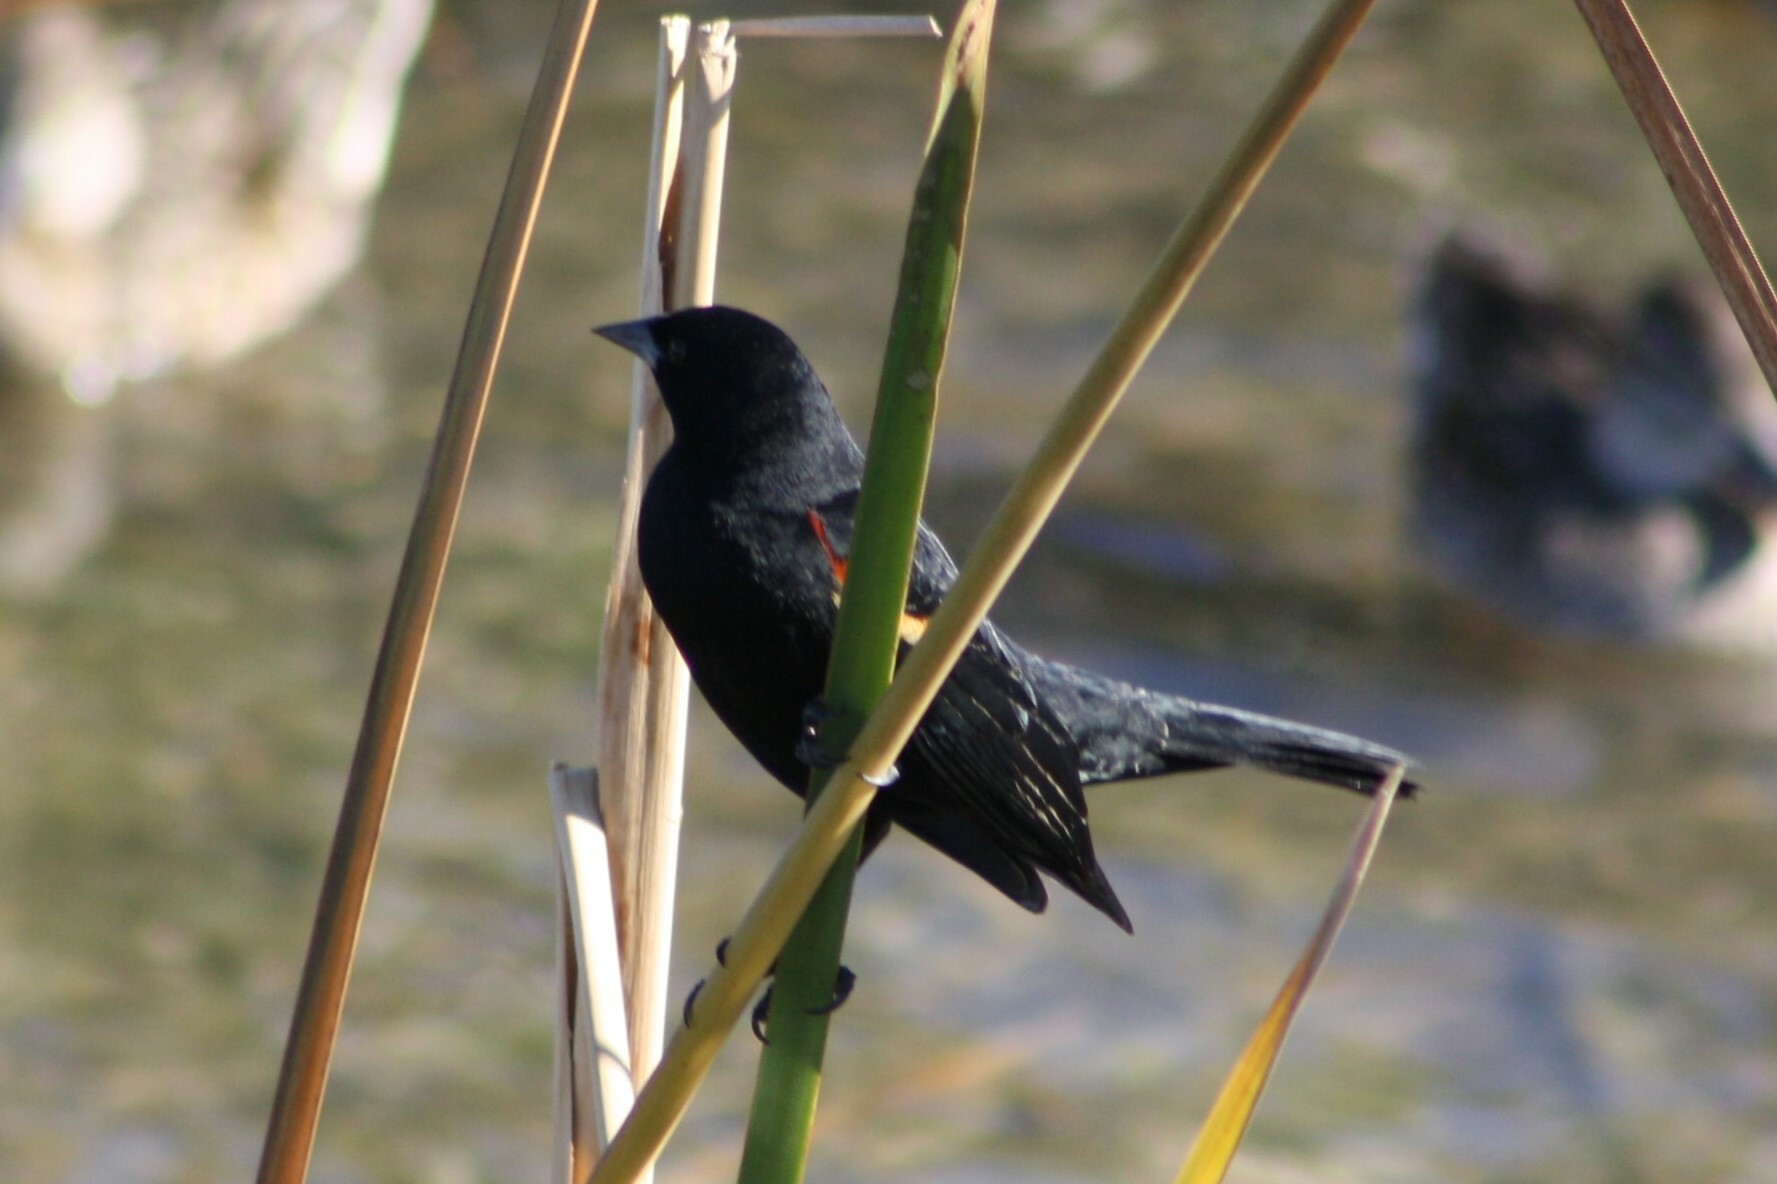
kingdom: Animalia
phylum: Chordata
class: Aves
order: Passeriformes
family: Icteridae
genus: Agelaius
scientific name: Agelaius phoeniceus
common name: Red-winged blackbird
